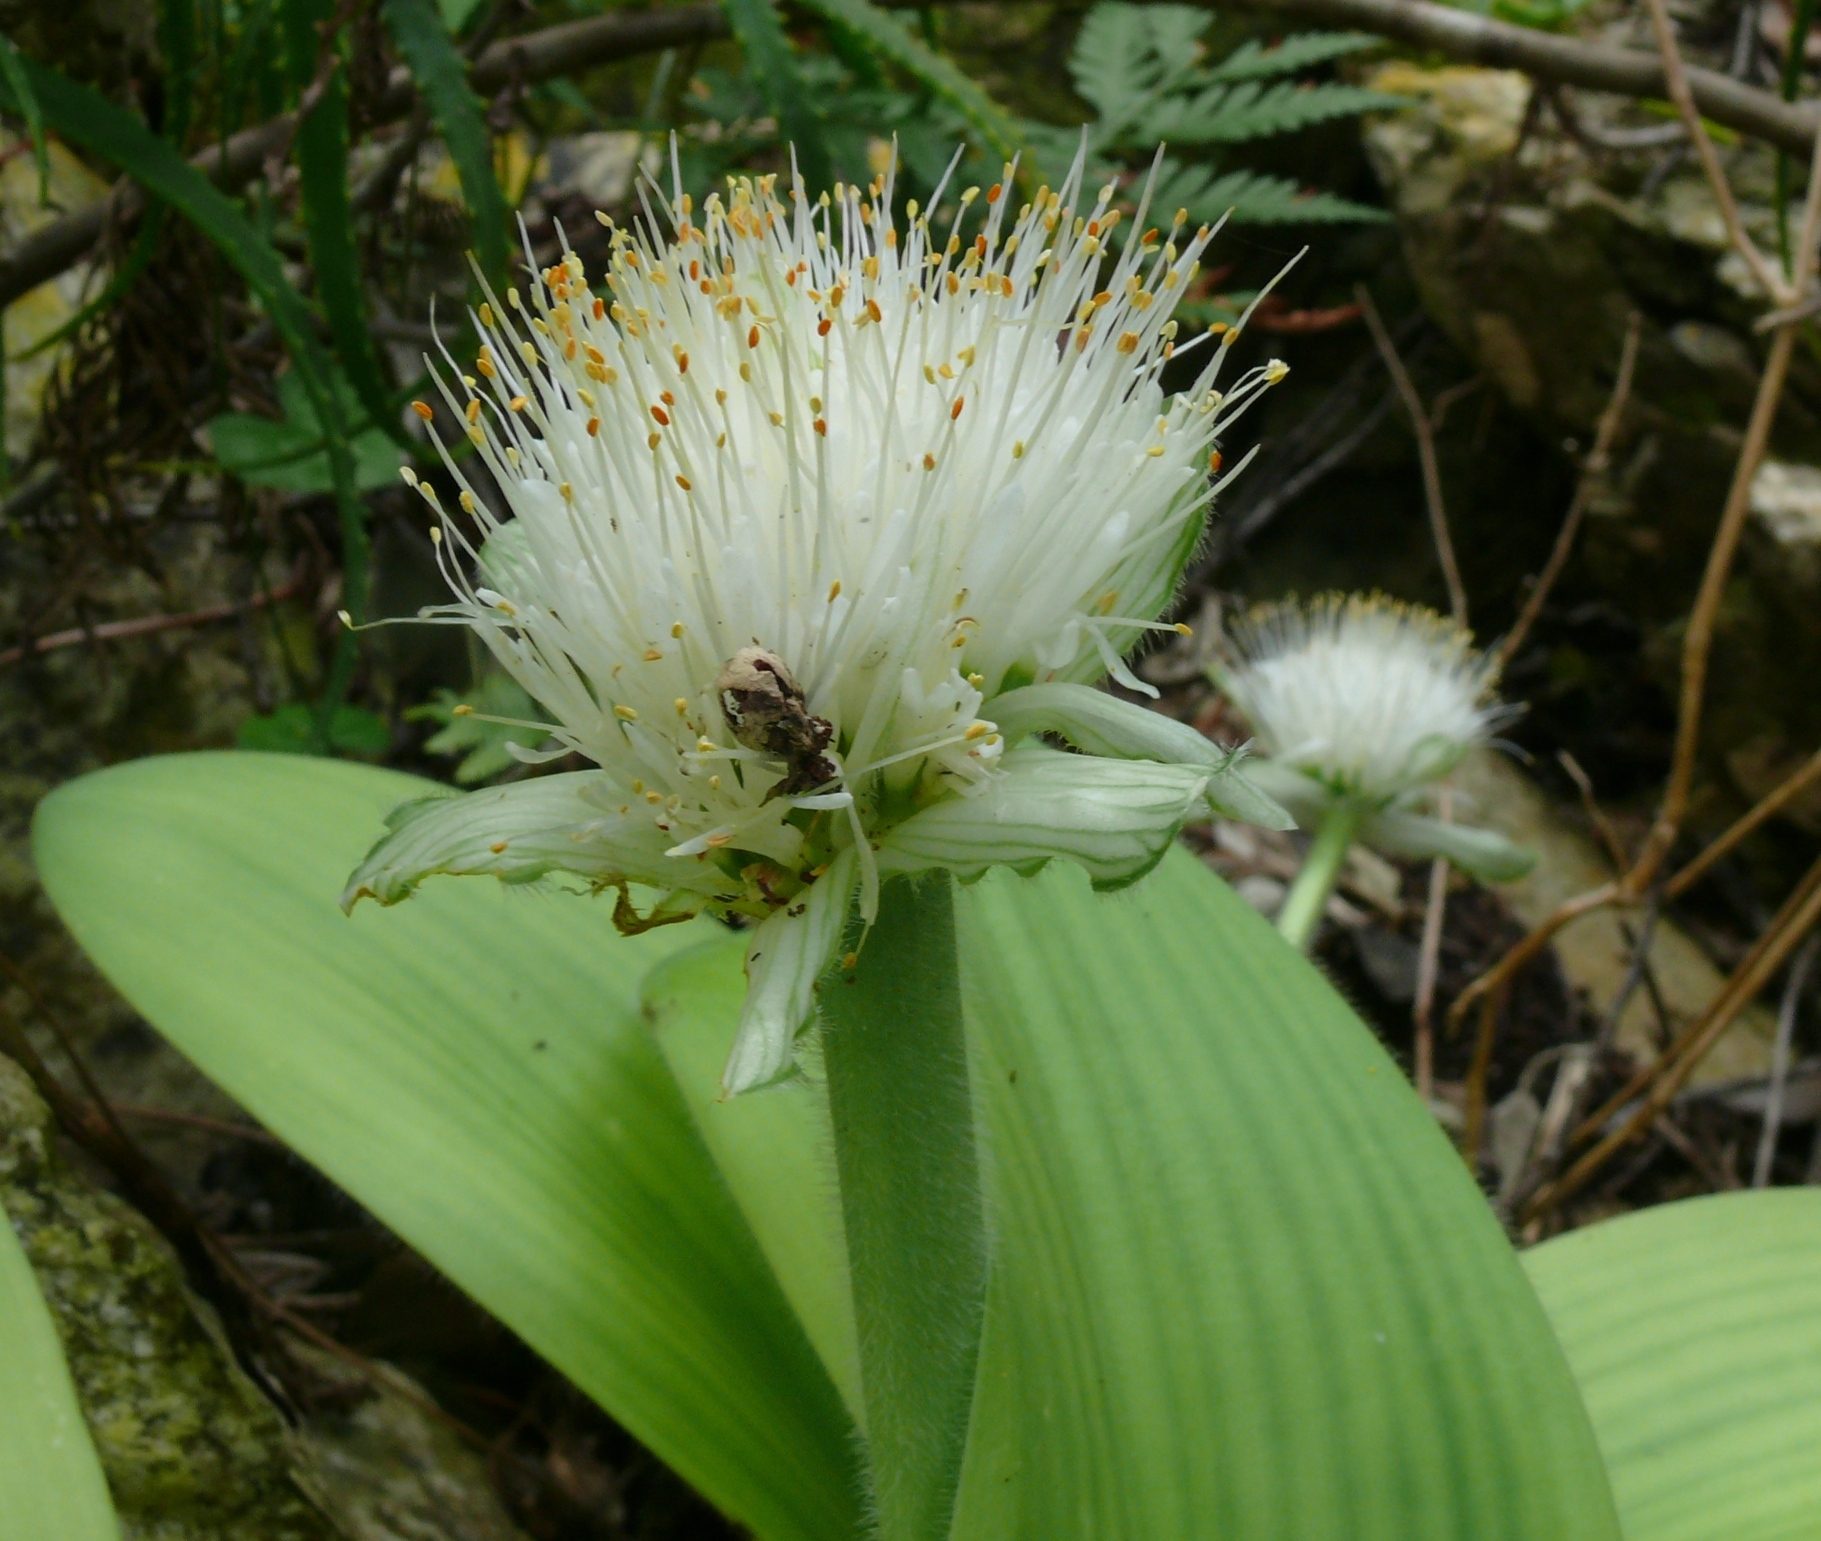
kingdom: Plantae
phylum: Tracheophyta
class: Liliopsida
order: Asparagales
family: Amaryllidaceae
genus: Haemanthus
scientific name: Haemanthus albiflos
